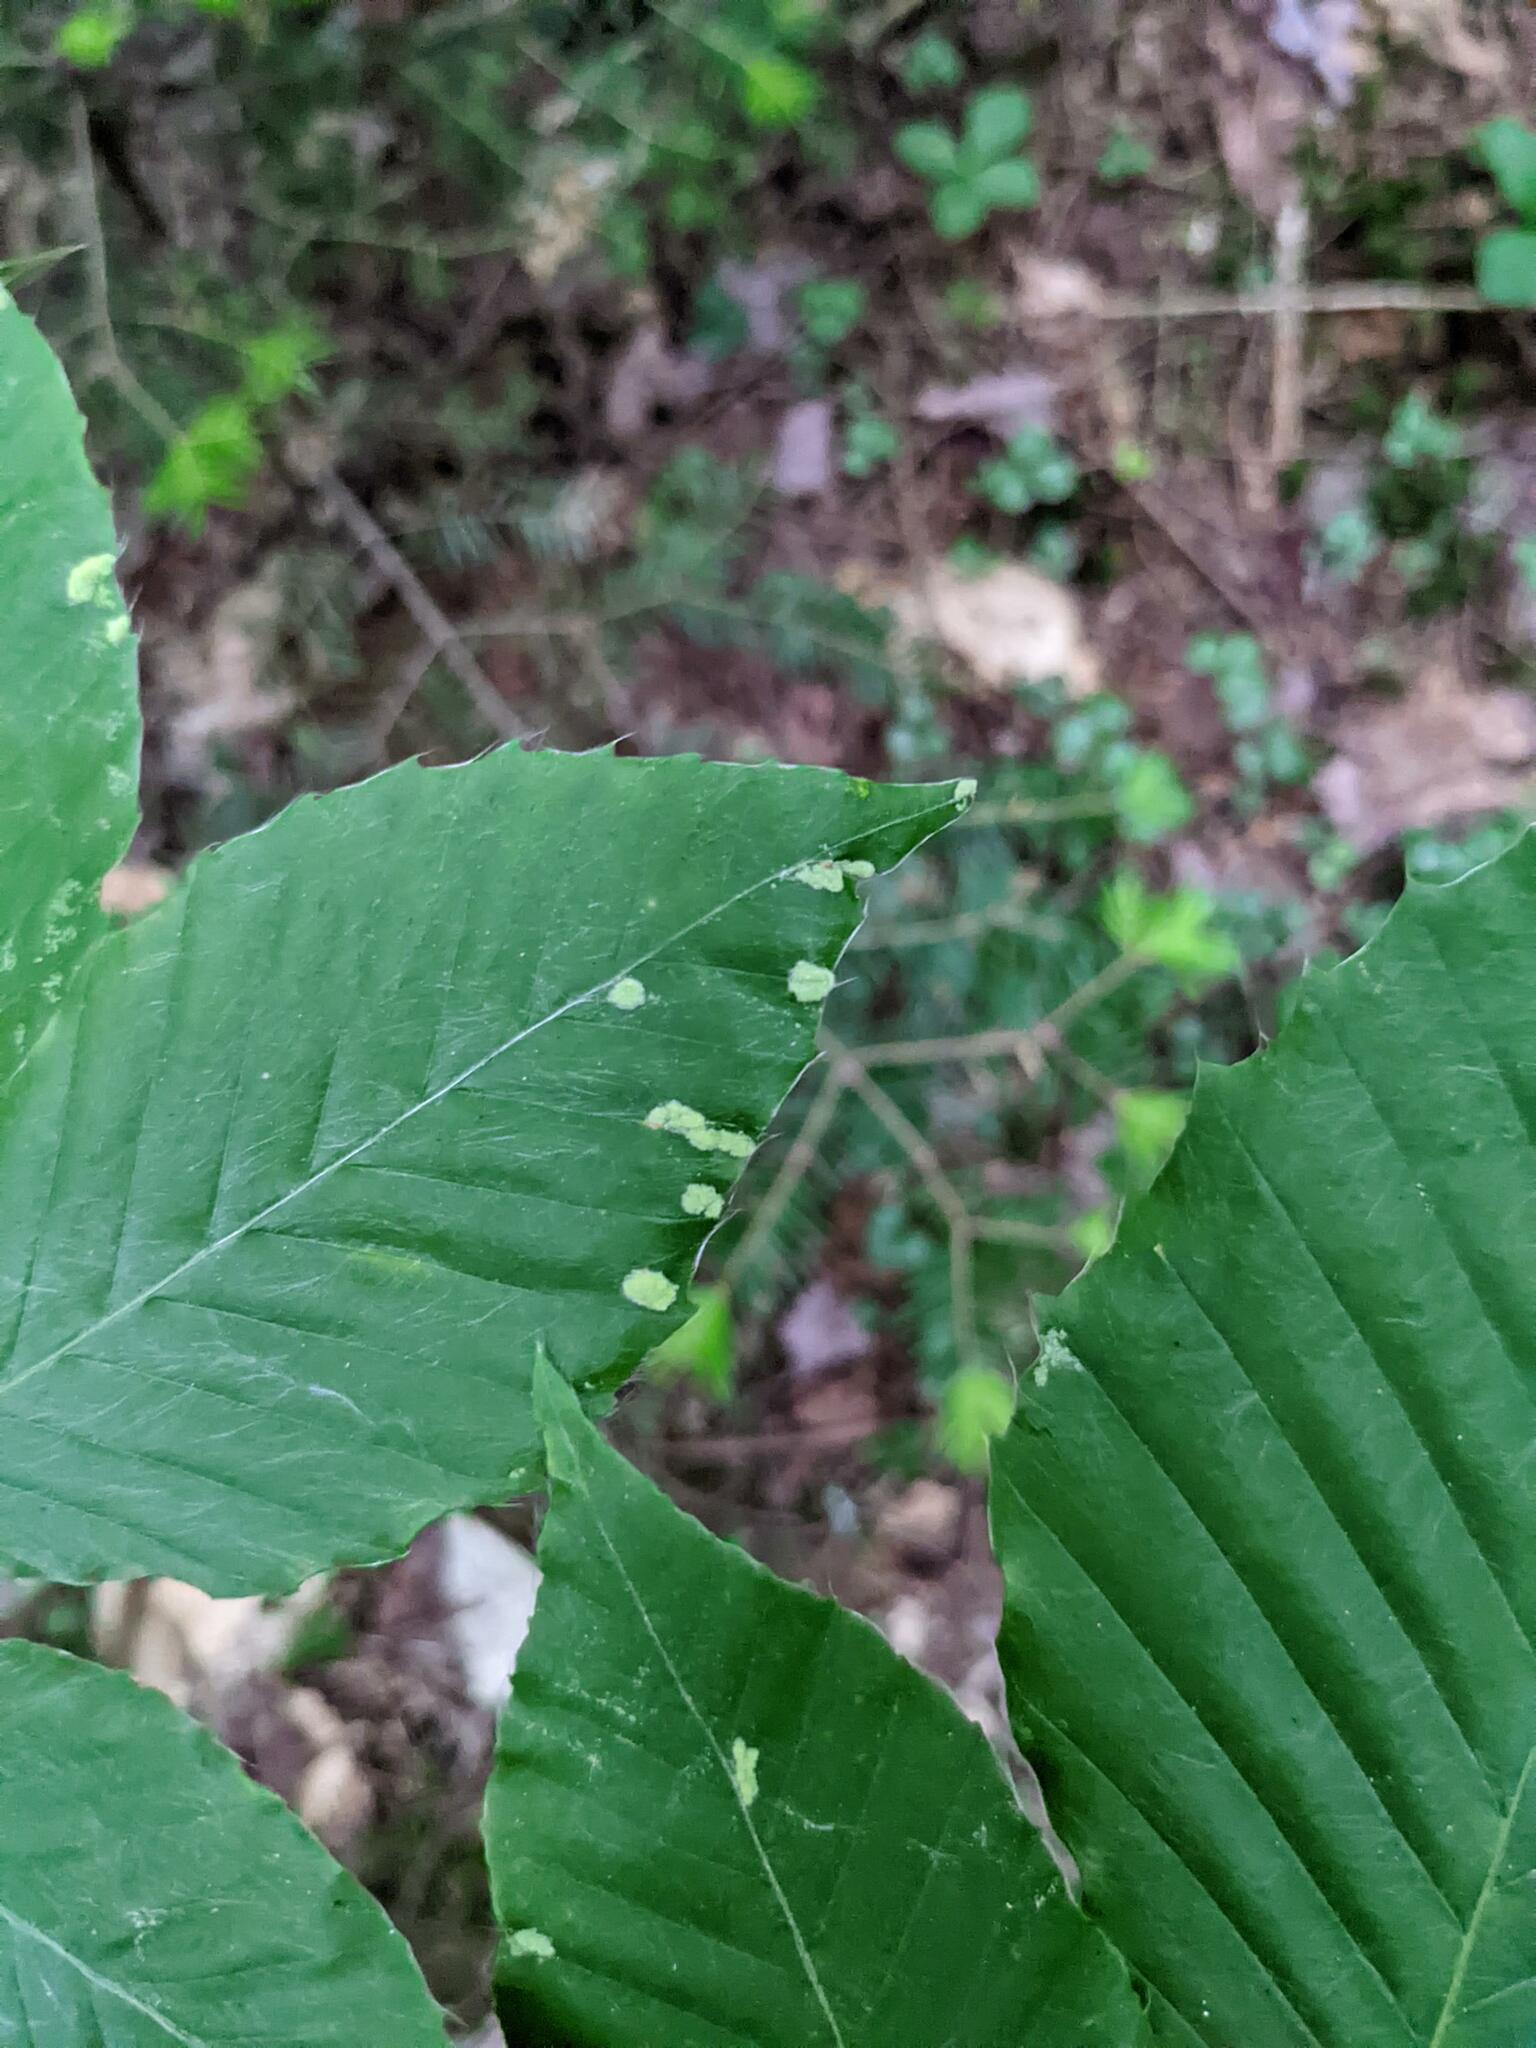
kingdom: Animalia
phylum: Arthropoda
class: Arachnida
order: Trombidiformes
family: Eriophyidae
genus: Acalitus
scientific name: Acalitus
